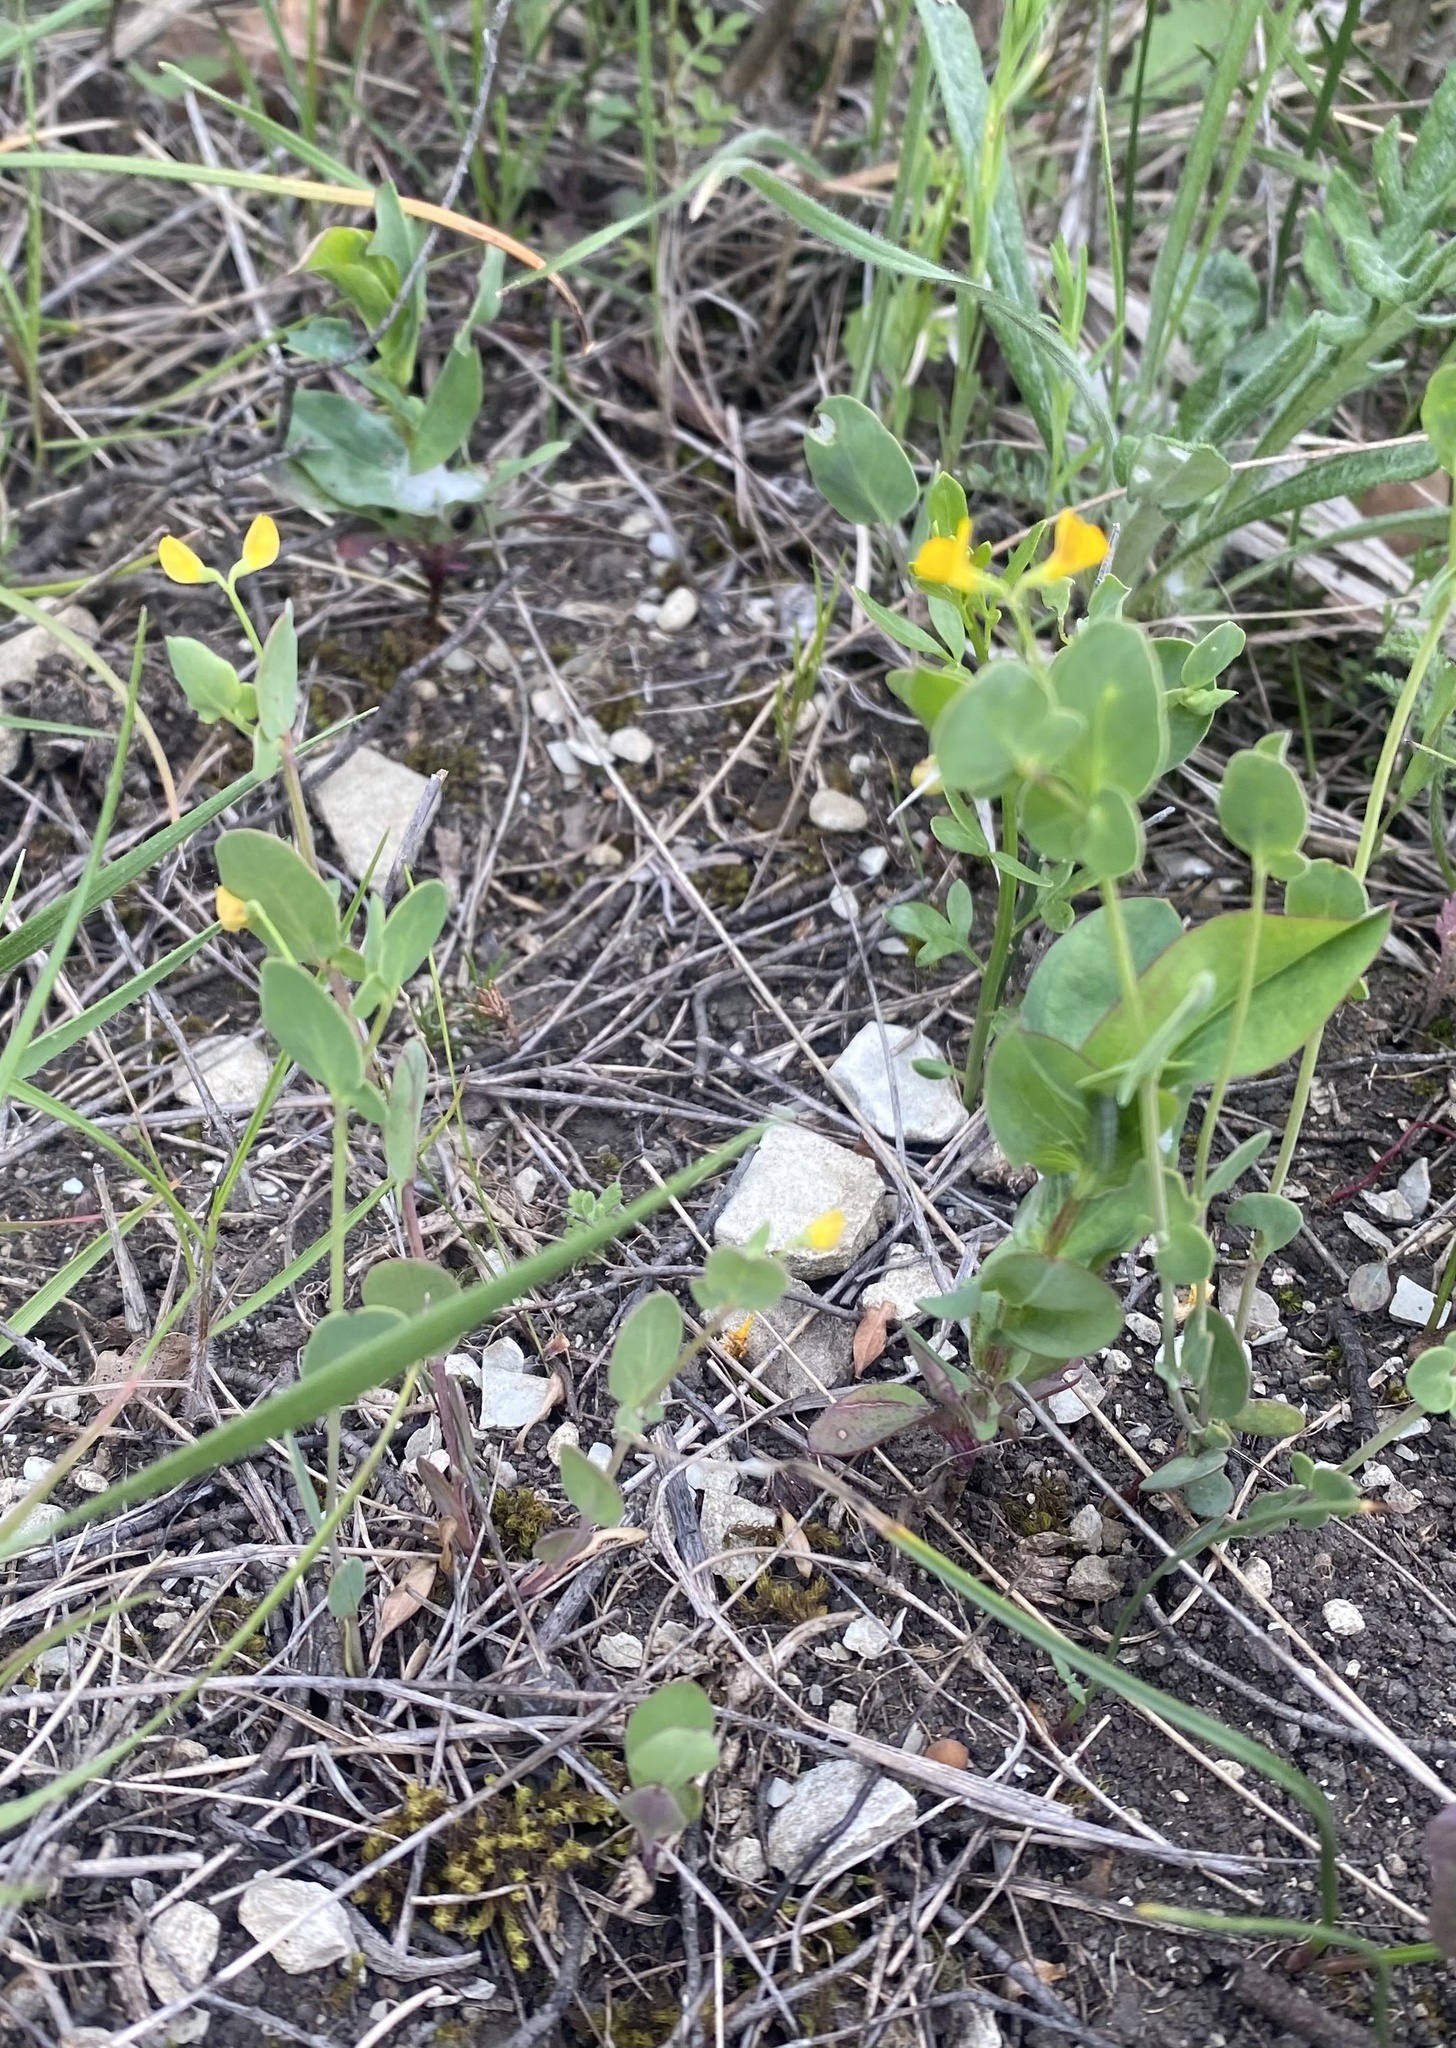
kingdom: Plantae
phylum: Tracheophyta
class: Magnoliopsida
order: Fabales
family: Fabaceae
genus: Coronilla
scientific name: Coronilla scorpioides
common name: Annual scorpion-vetch
